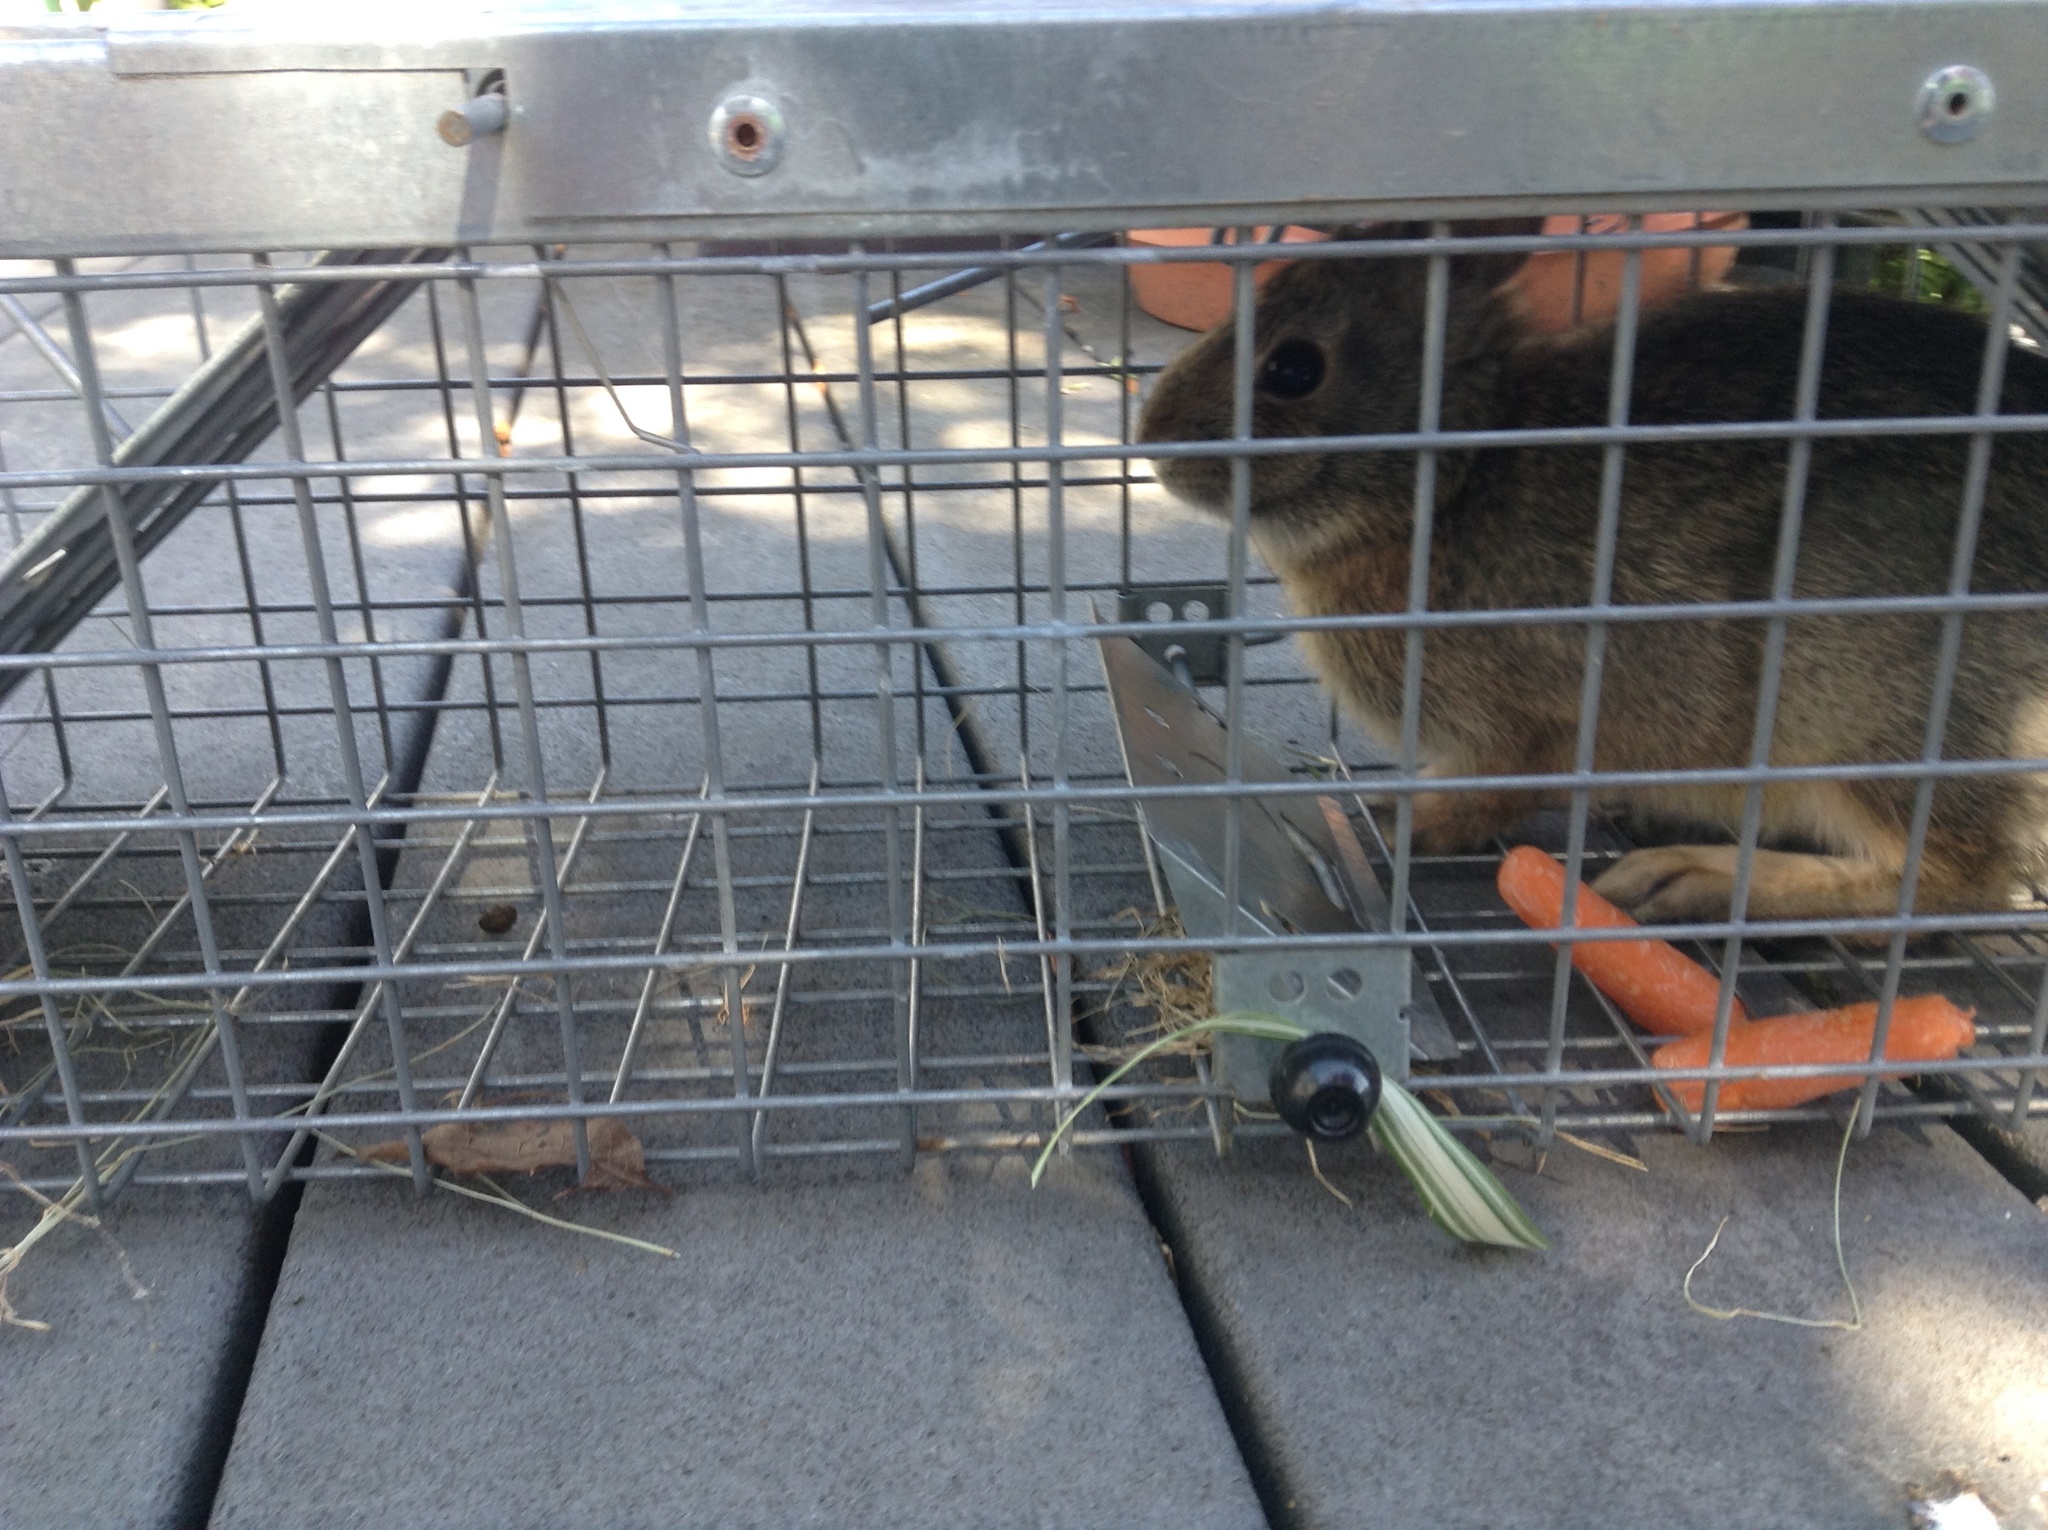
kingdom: Animalia
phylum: Chordata
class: Mammalia
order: Lagomorpha
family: Leporidae
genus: Sylvilagus
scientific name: Sylvilagus floridanus
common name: Eastern cottontail
